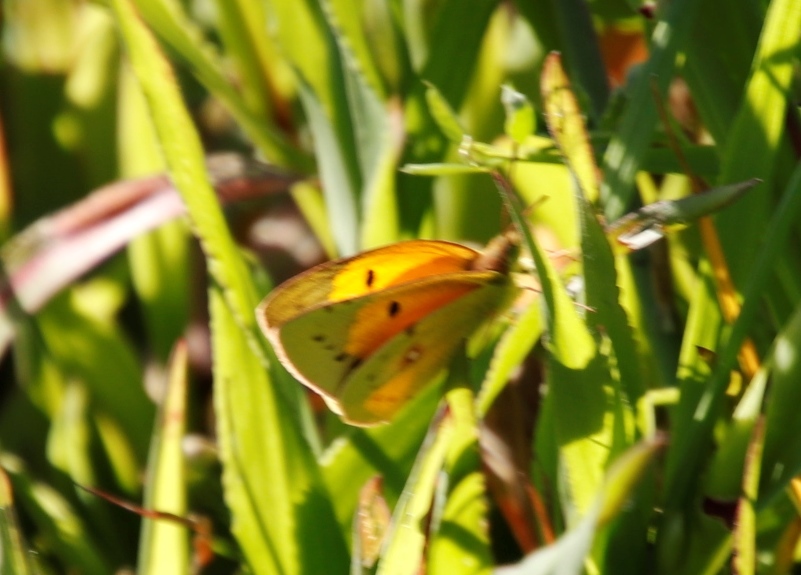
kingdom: Animalia
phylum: Arthropoda
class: Insecta
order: Lepidoptera
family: Pieridae
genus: Colias
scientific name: Colias electo
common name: African clouded yellow
